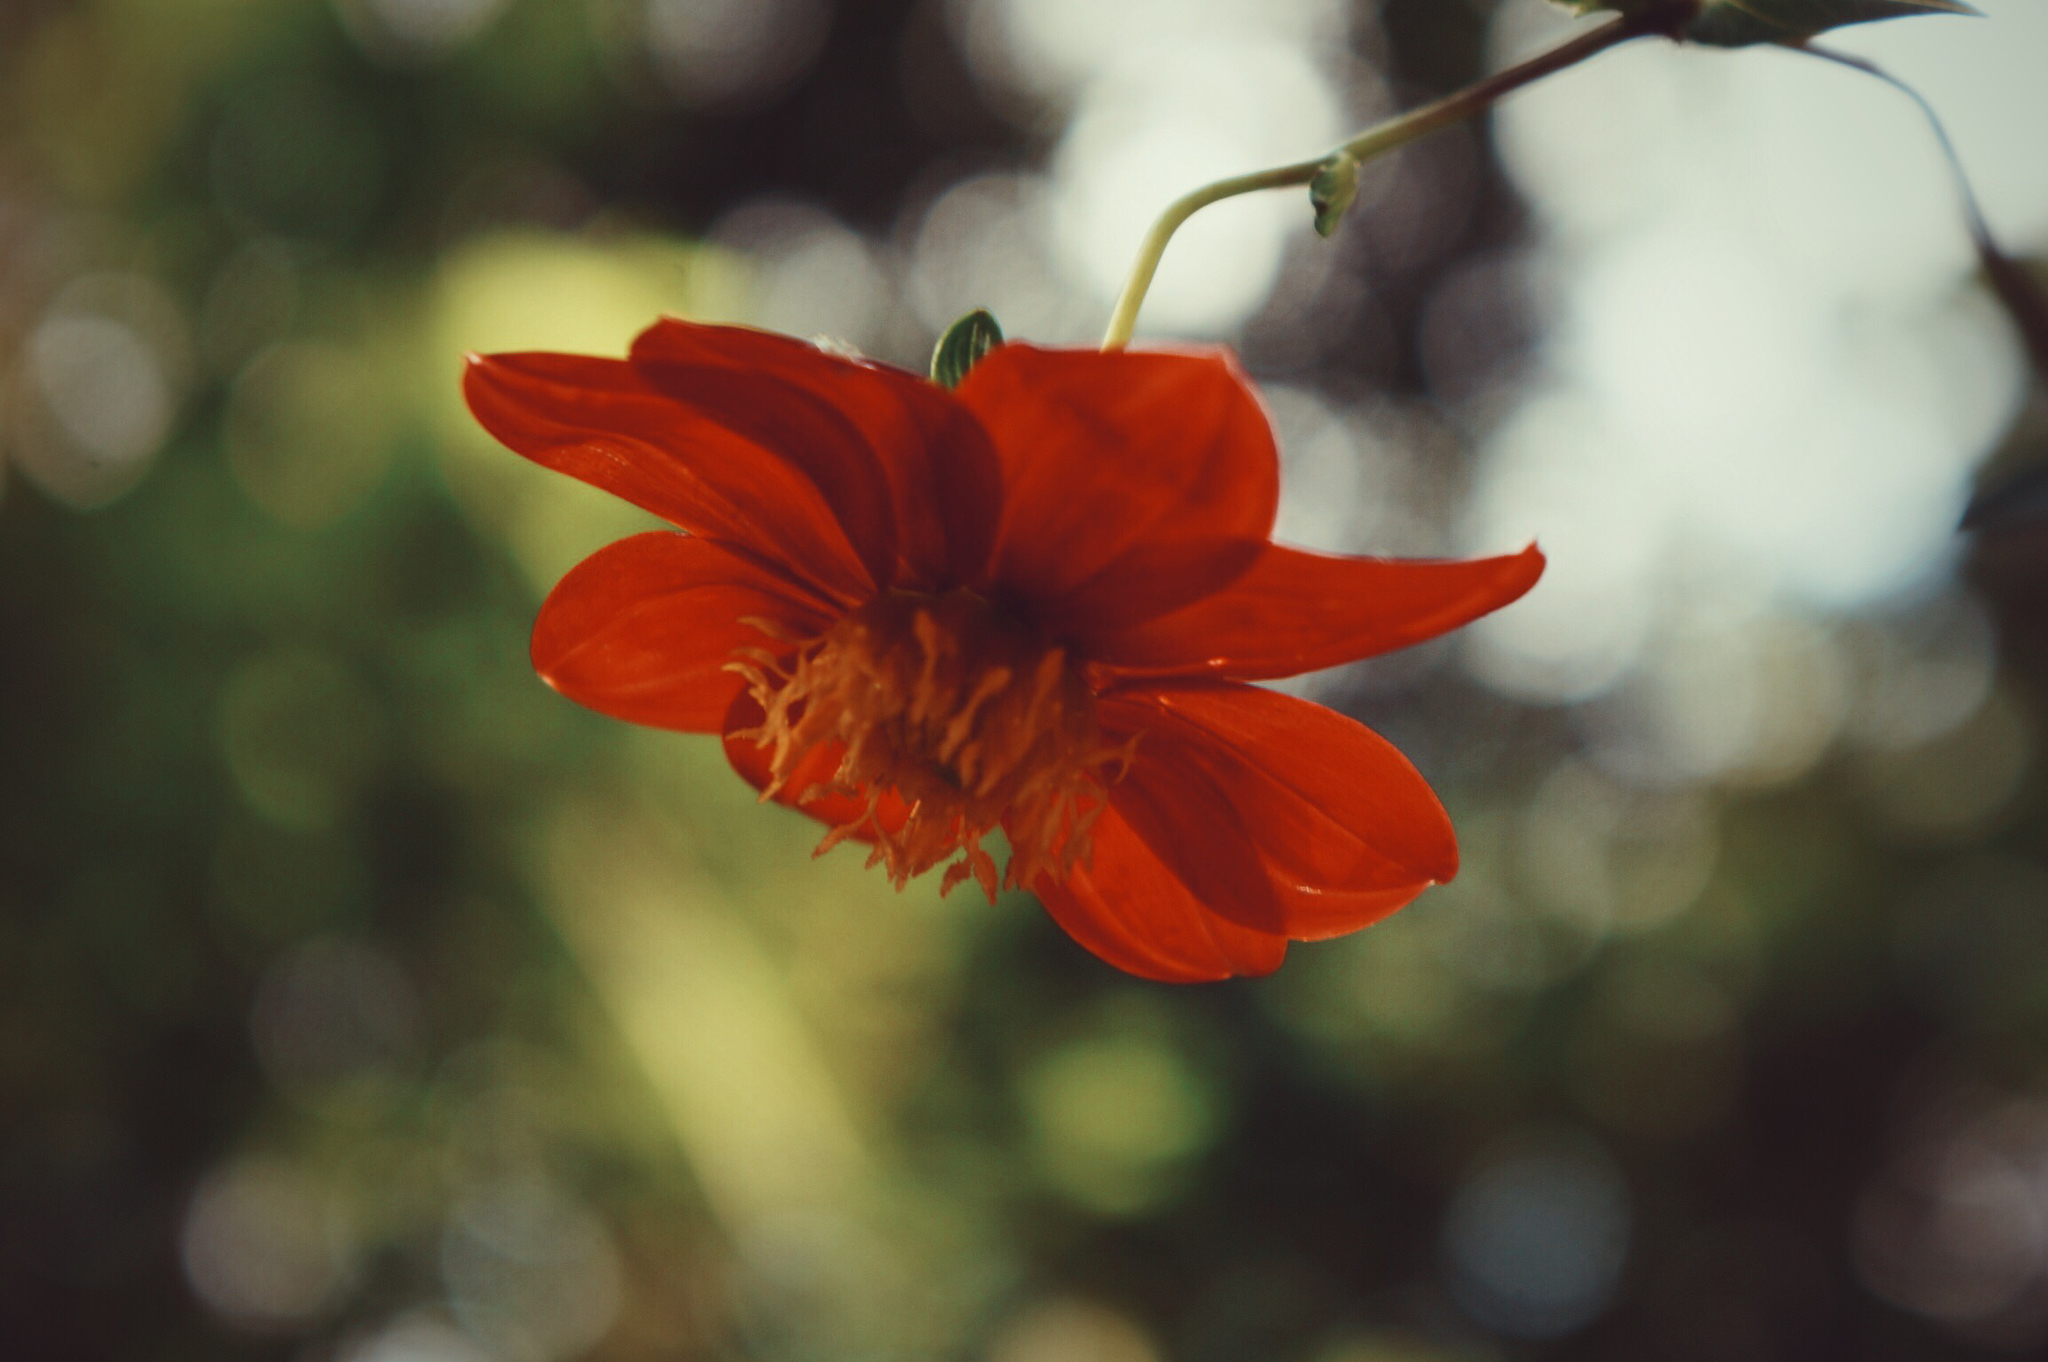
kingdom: Plantae
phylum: Tracheophyta
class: Magnoliopsida
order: Asterales
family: Asteraceae
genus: Dahlia
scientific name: Dahlia coccinea
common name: Red dahlia
